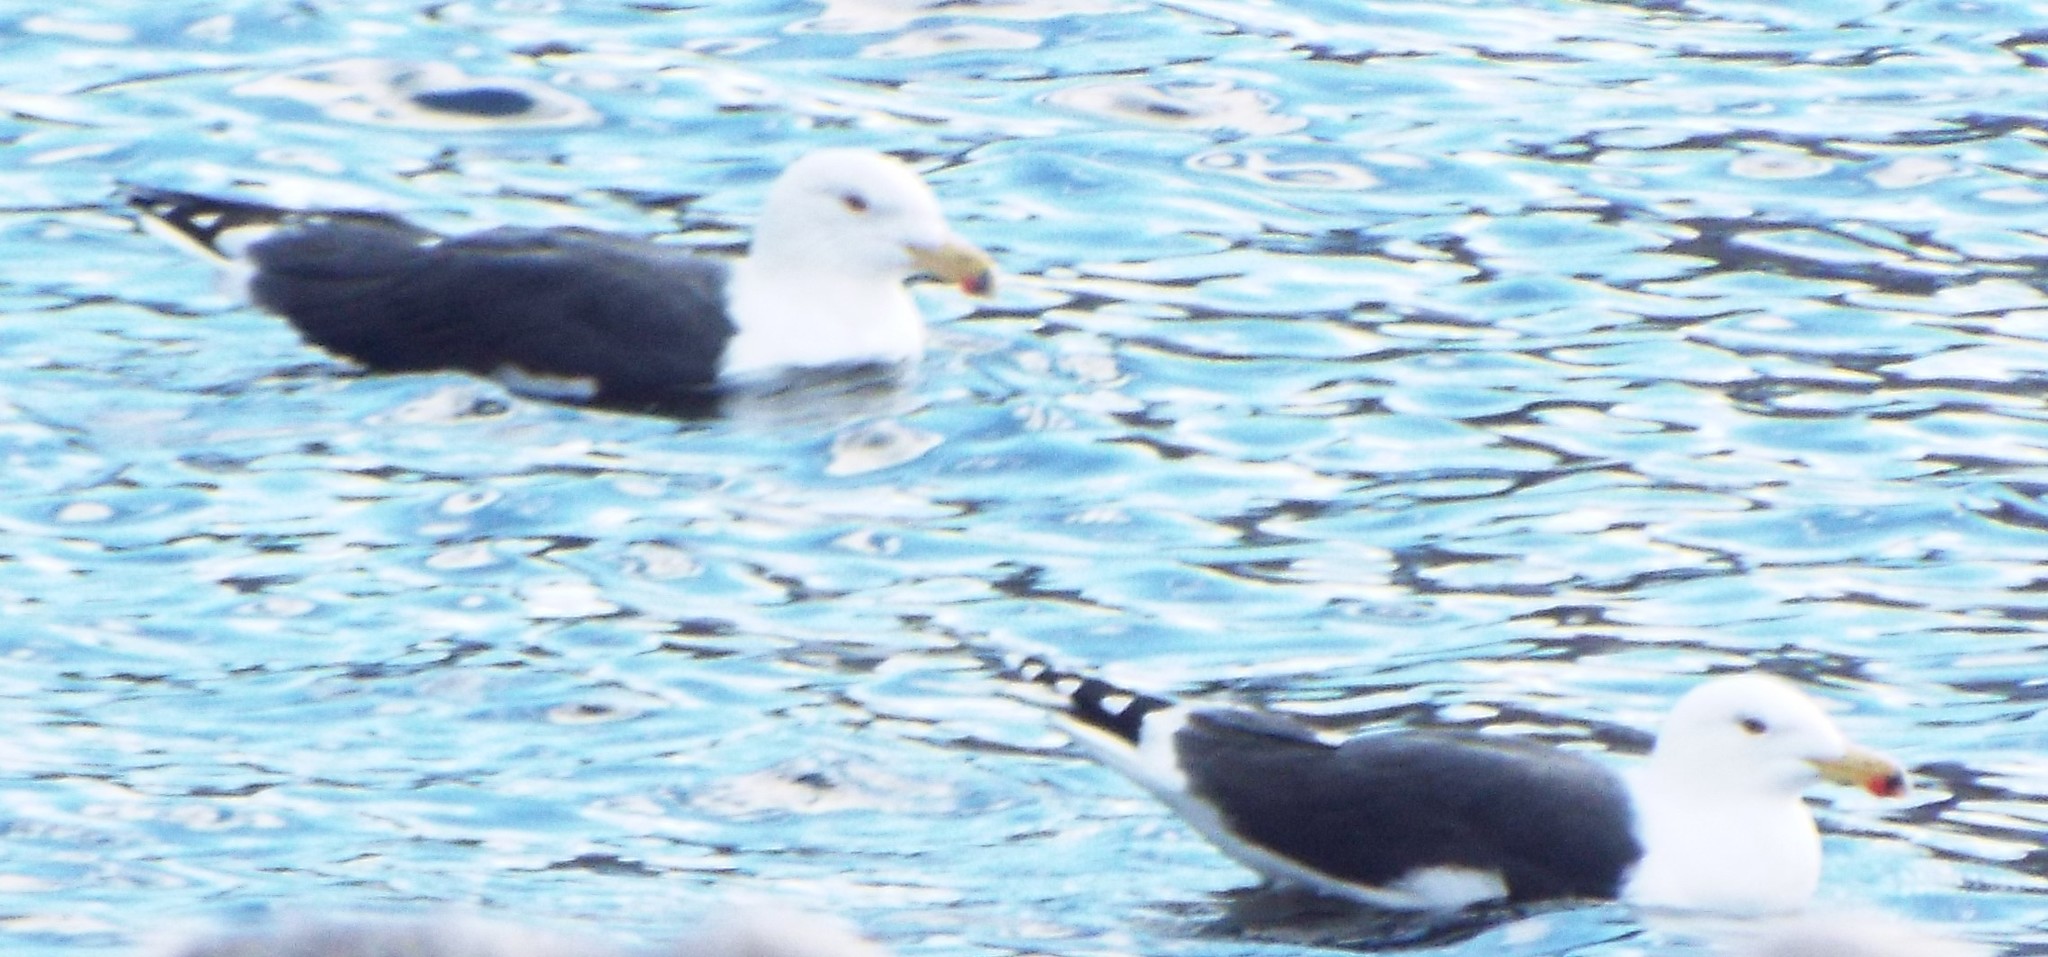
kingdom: Animalia
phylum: Chordata
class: Aves
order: Charadriiformes
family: Laridae
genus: Larus
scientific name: Larus marinus
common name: Great black-backed gull
